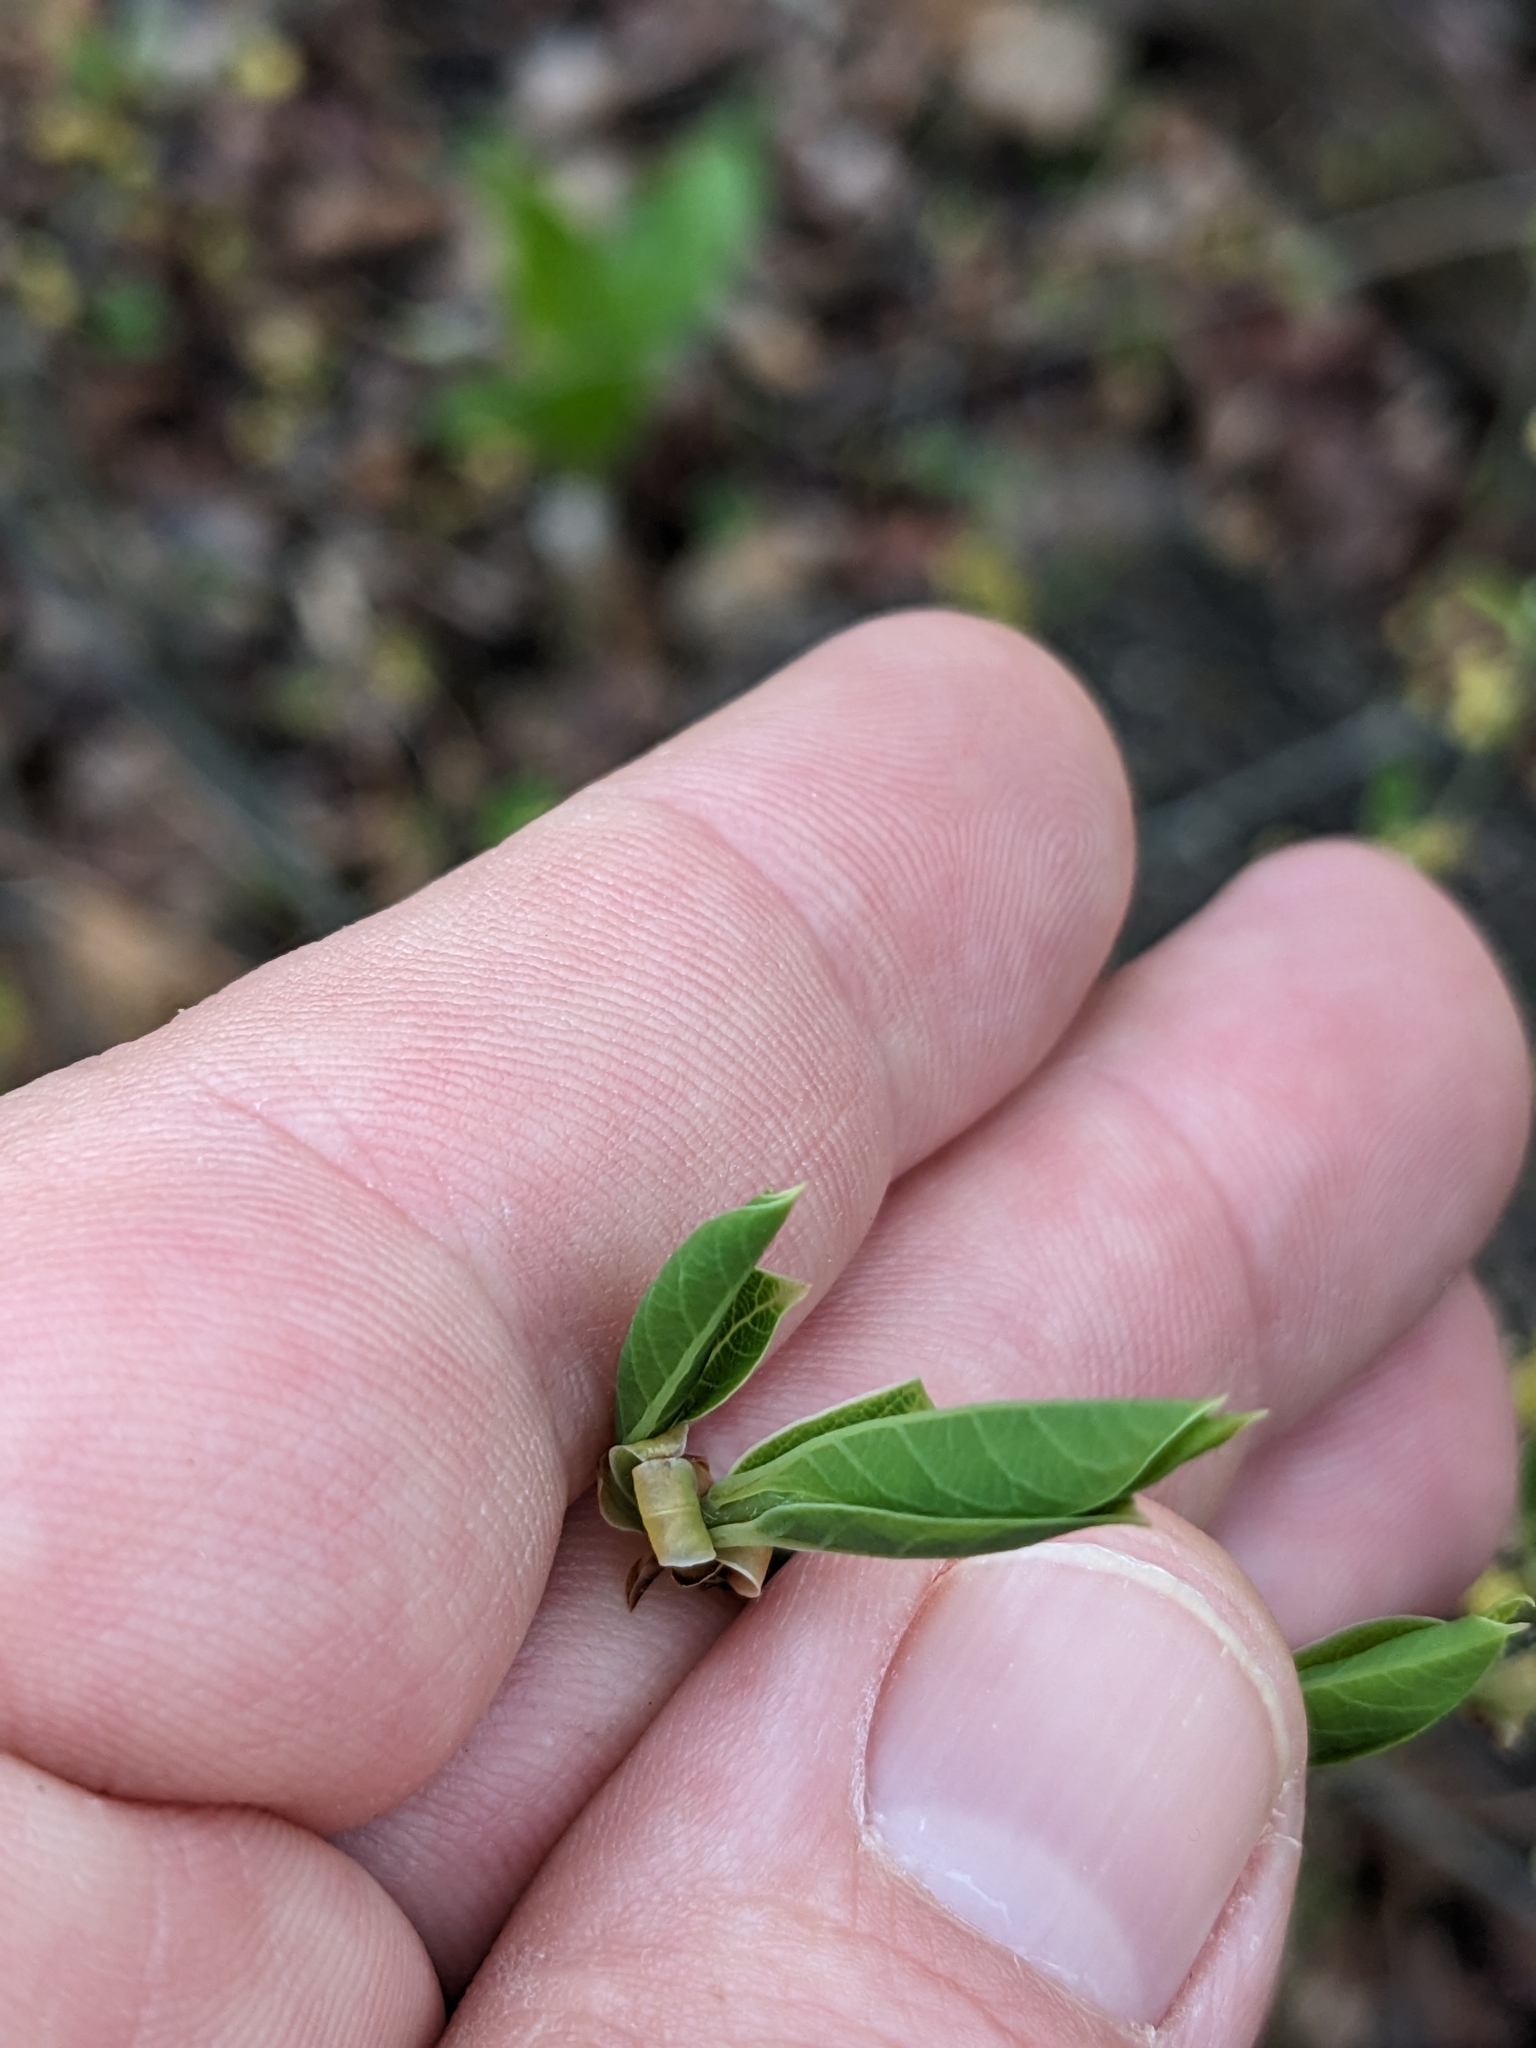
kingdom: Plantae
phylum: Tracheophyta
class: Magnoliopsida
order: Laurales
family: Lauraceae
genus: Lindera
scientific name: Lindera benzoin
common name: Spicebush
